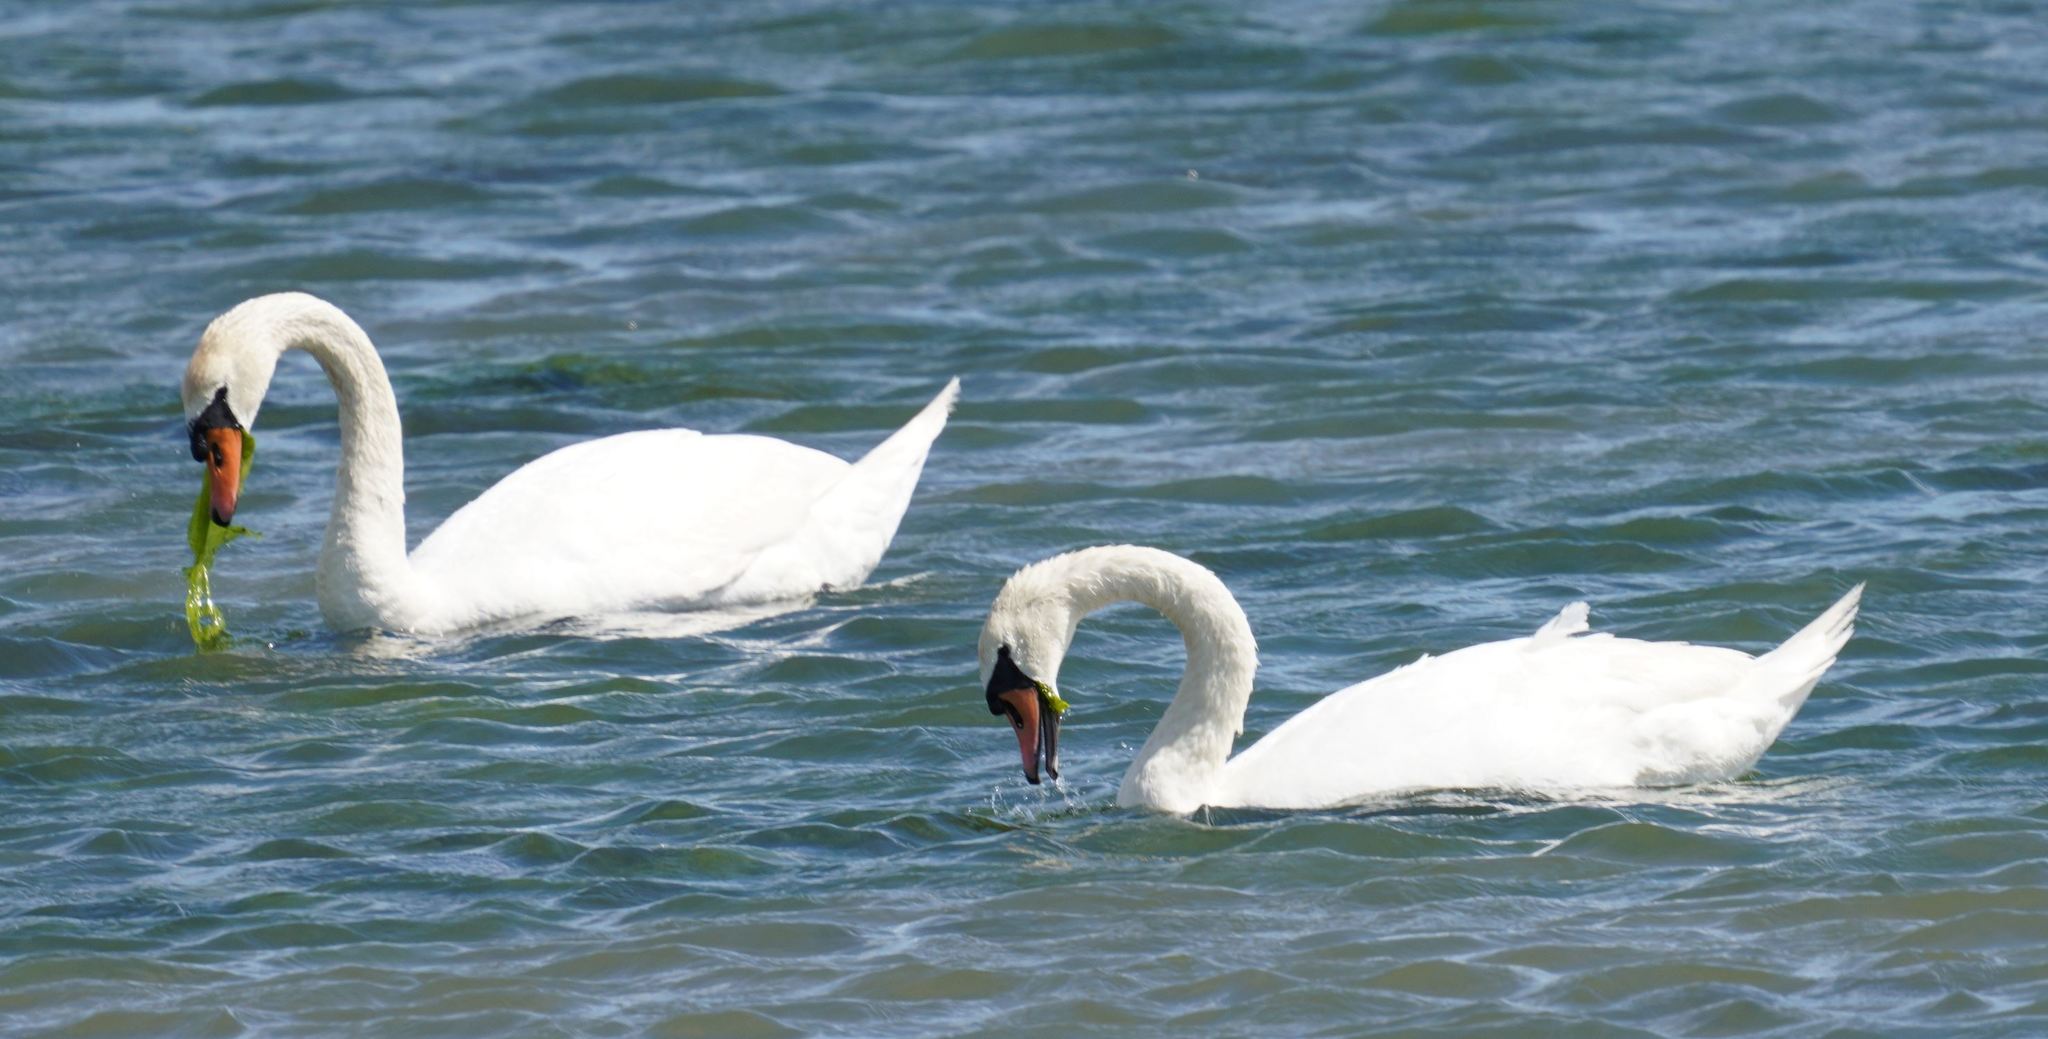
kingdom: Animalia
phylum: Chordata
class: Aves
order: Anseriformes
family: Anatidae
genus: Cygnus
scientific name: Cygnus olor
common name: Mute swan
